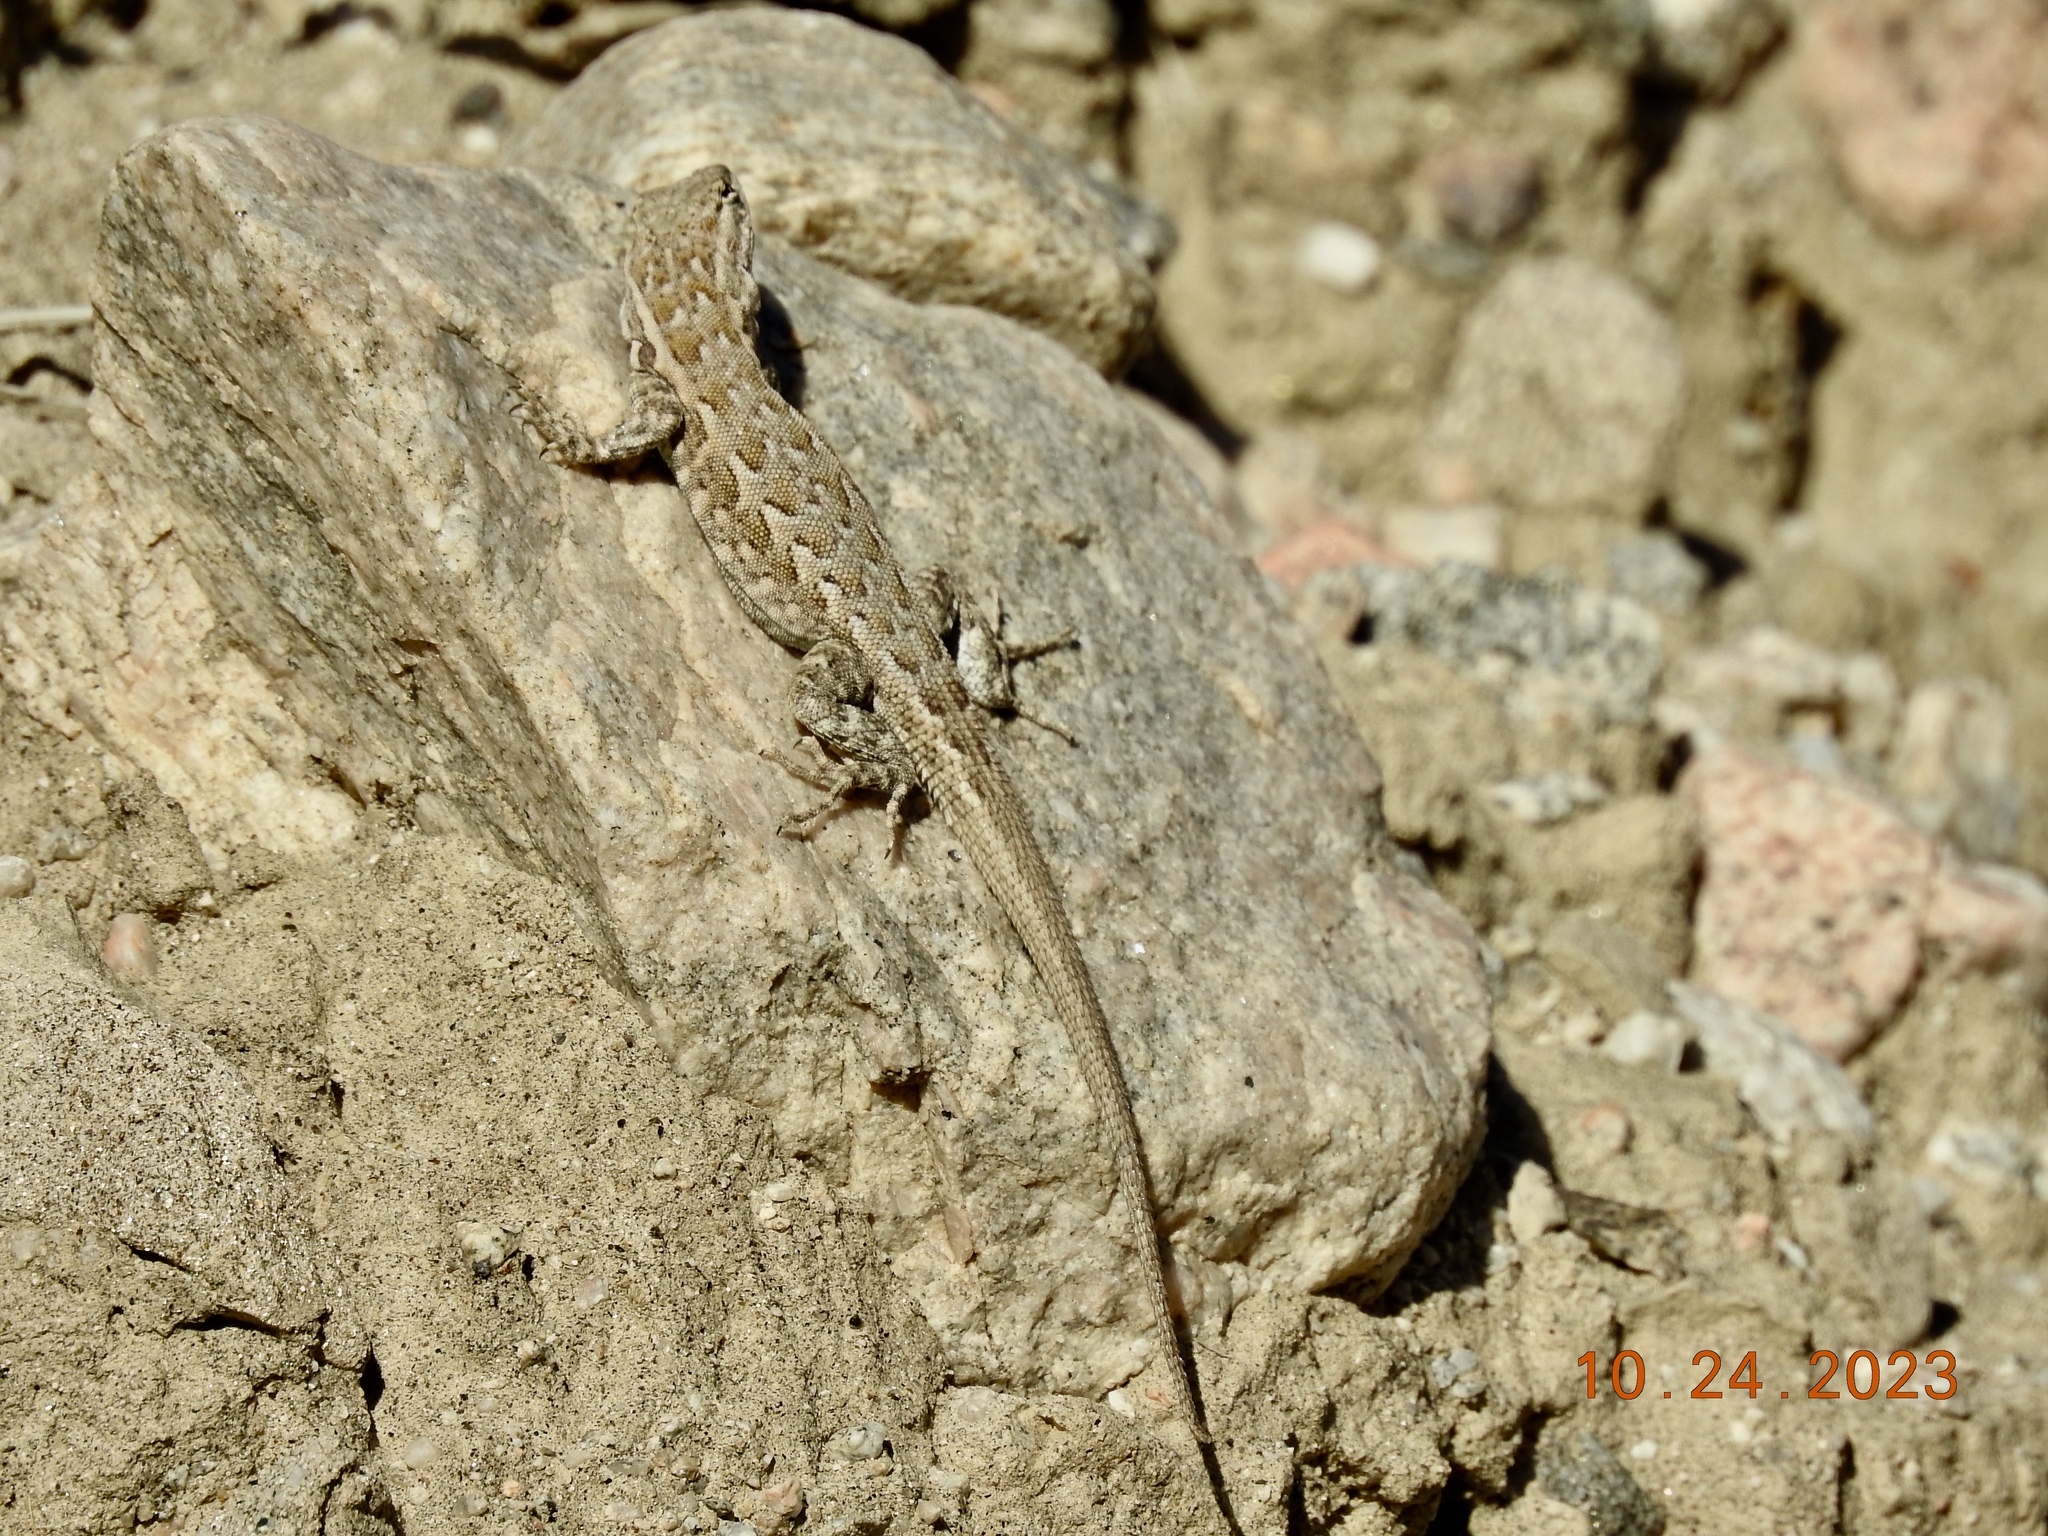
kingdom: Animalia
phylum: Chordata
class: Squamata
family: Phrynosomatidae
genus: Uta
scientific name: Uta stansburiana
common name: Side-blotched lizard
